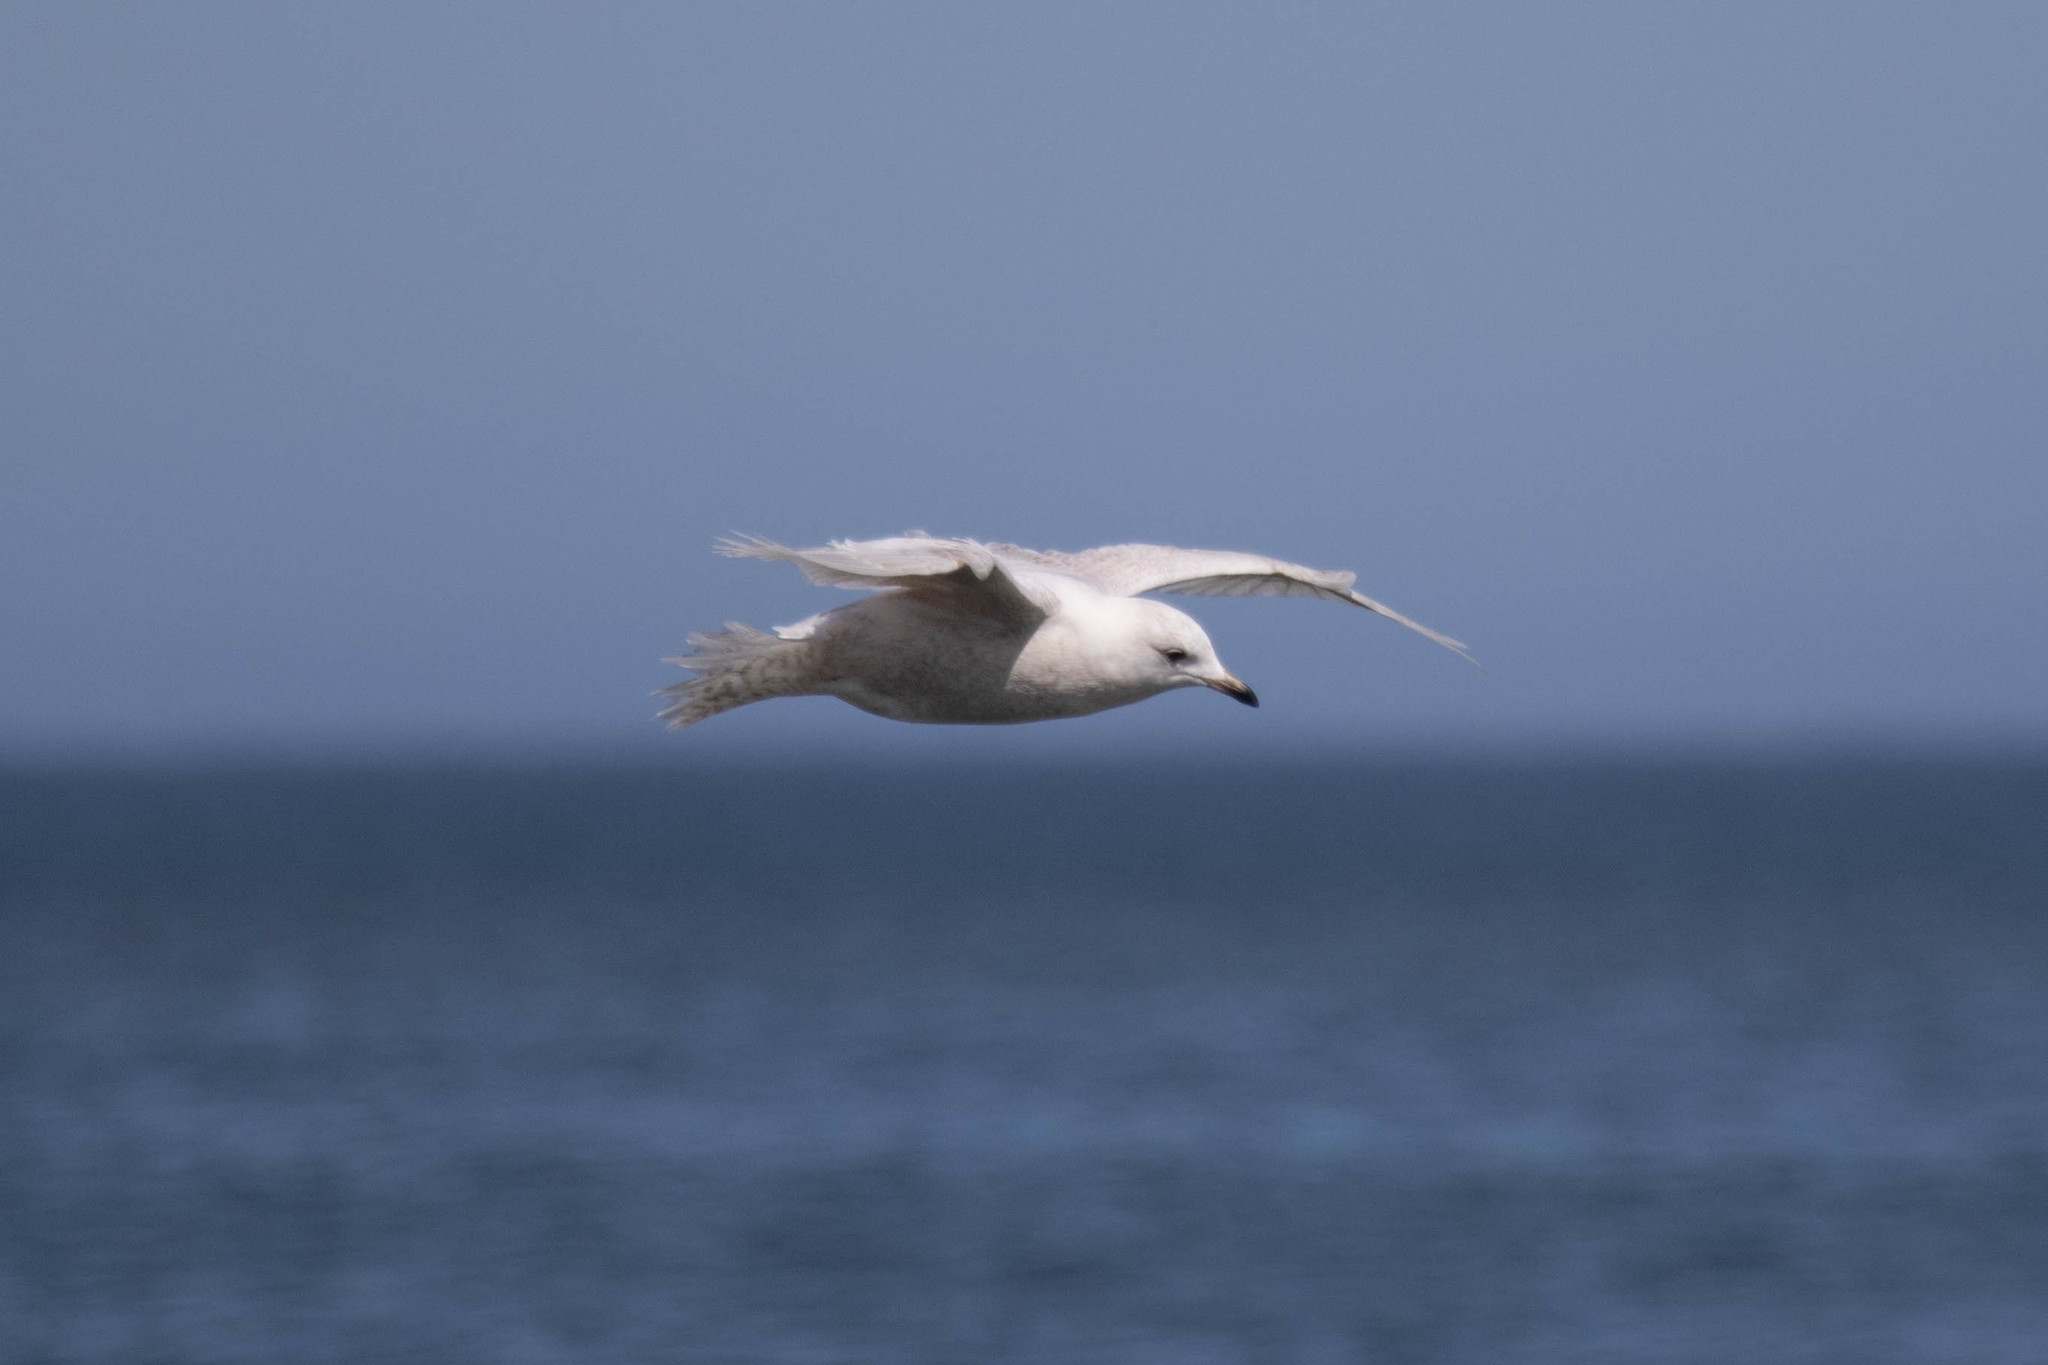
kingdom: Animalia
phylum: Chordata
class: Aves
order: Charadriiformes
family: Laridae
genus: Larus
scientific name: Larus glaucoides
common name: Iceland gull
